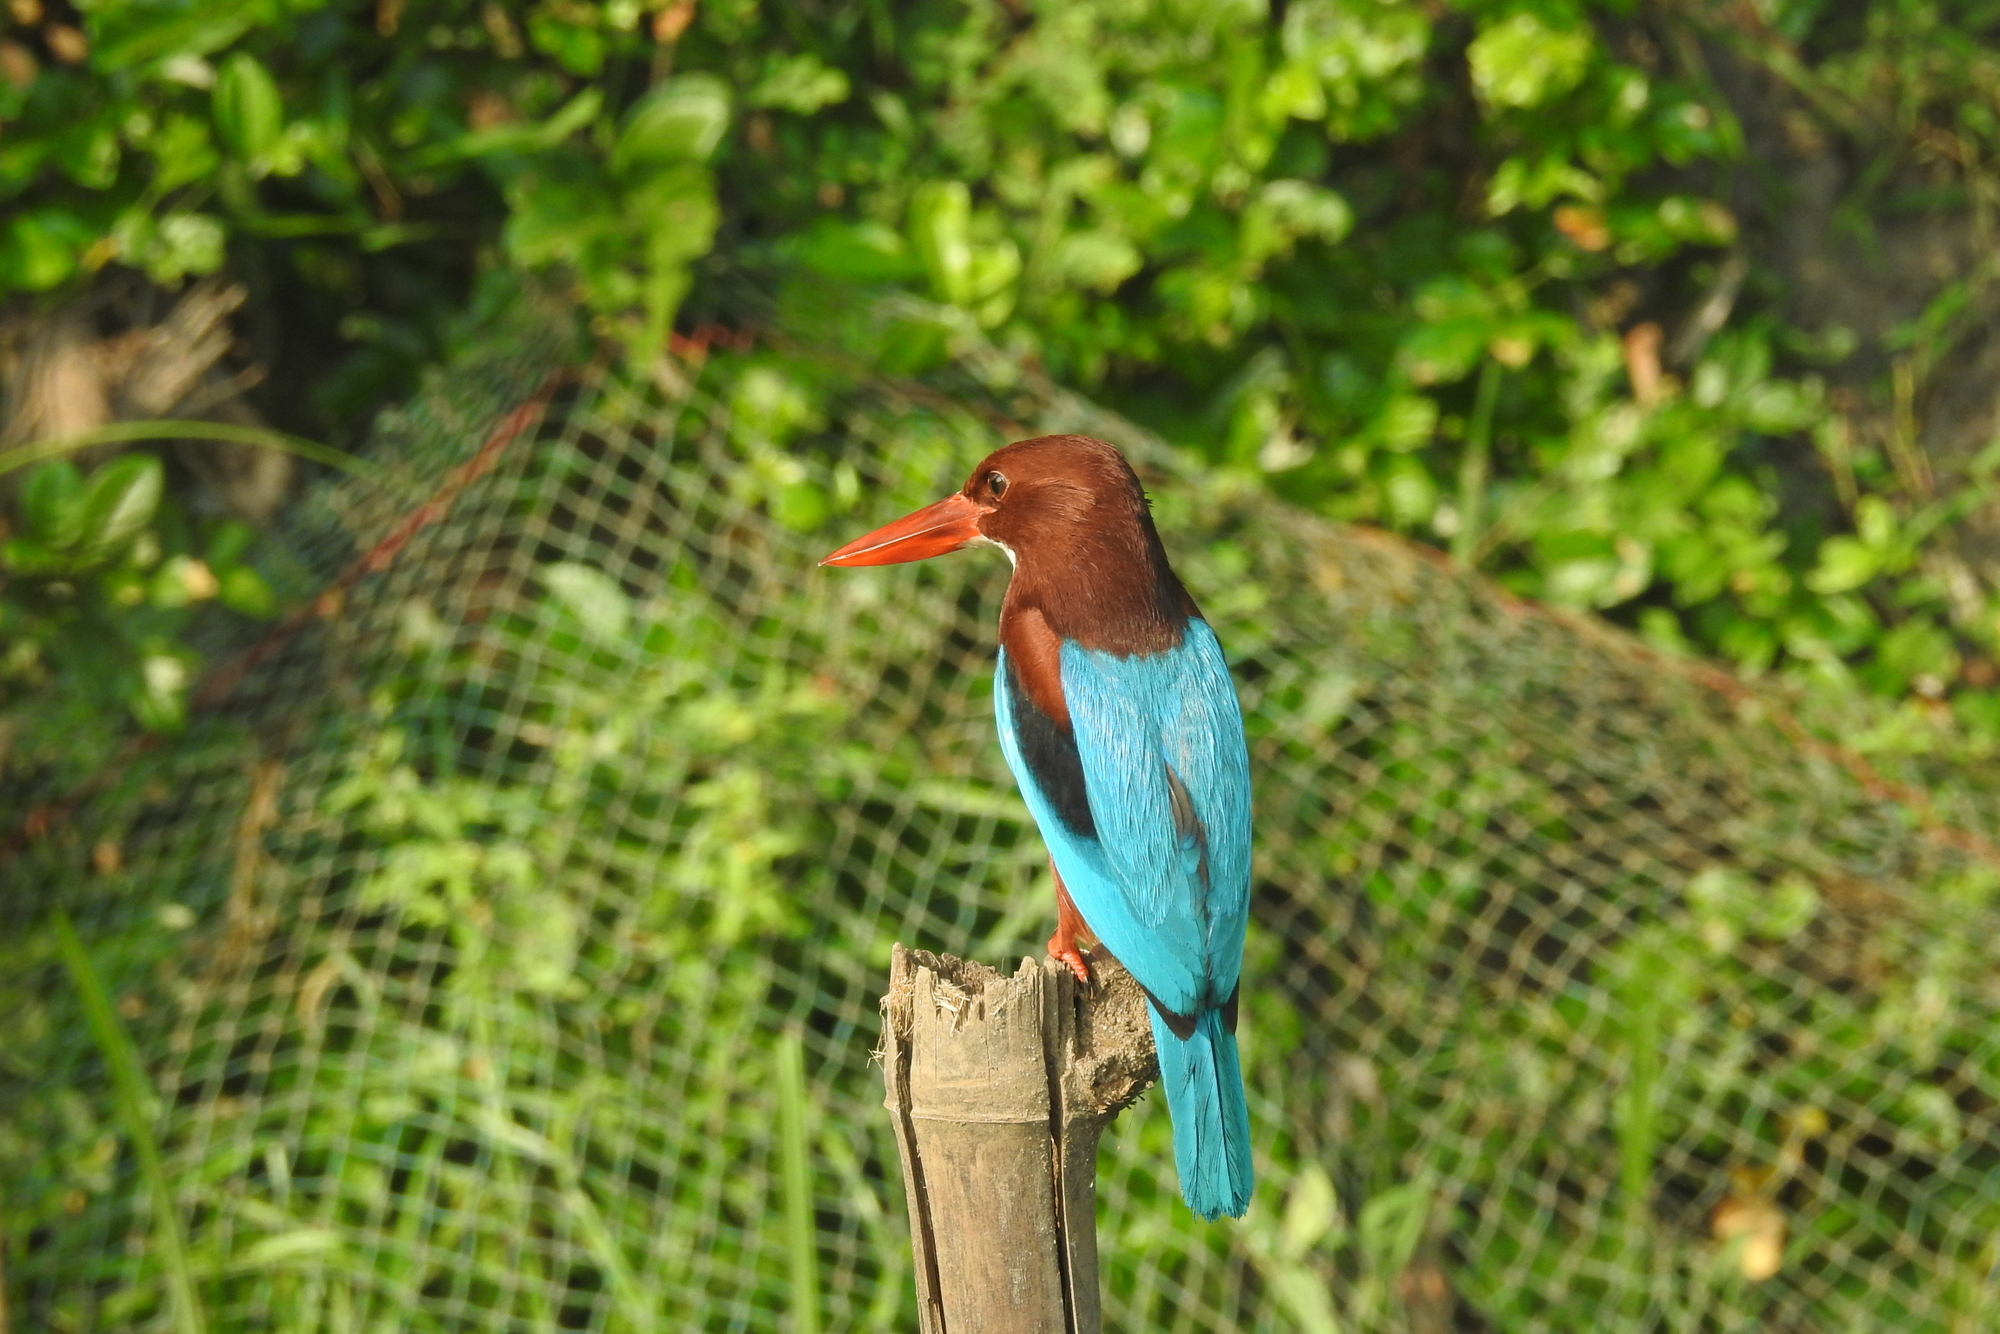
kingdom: Animalia
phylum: Chordata
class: Aves
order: Coraciiformes
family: Alcedinidae
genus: Halcyon
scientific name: Halcyon smyrnensis
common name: White-throated kingfisher
